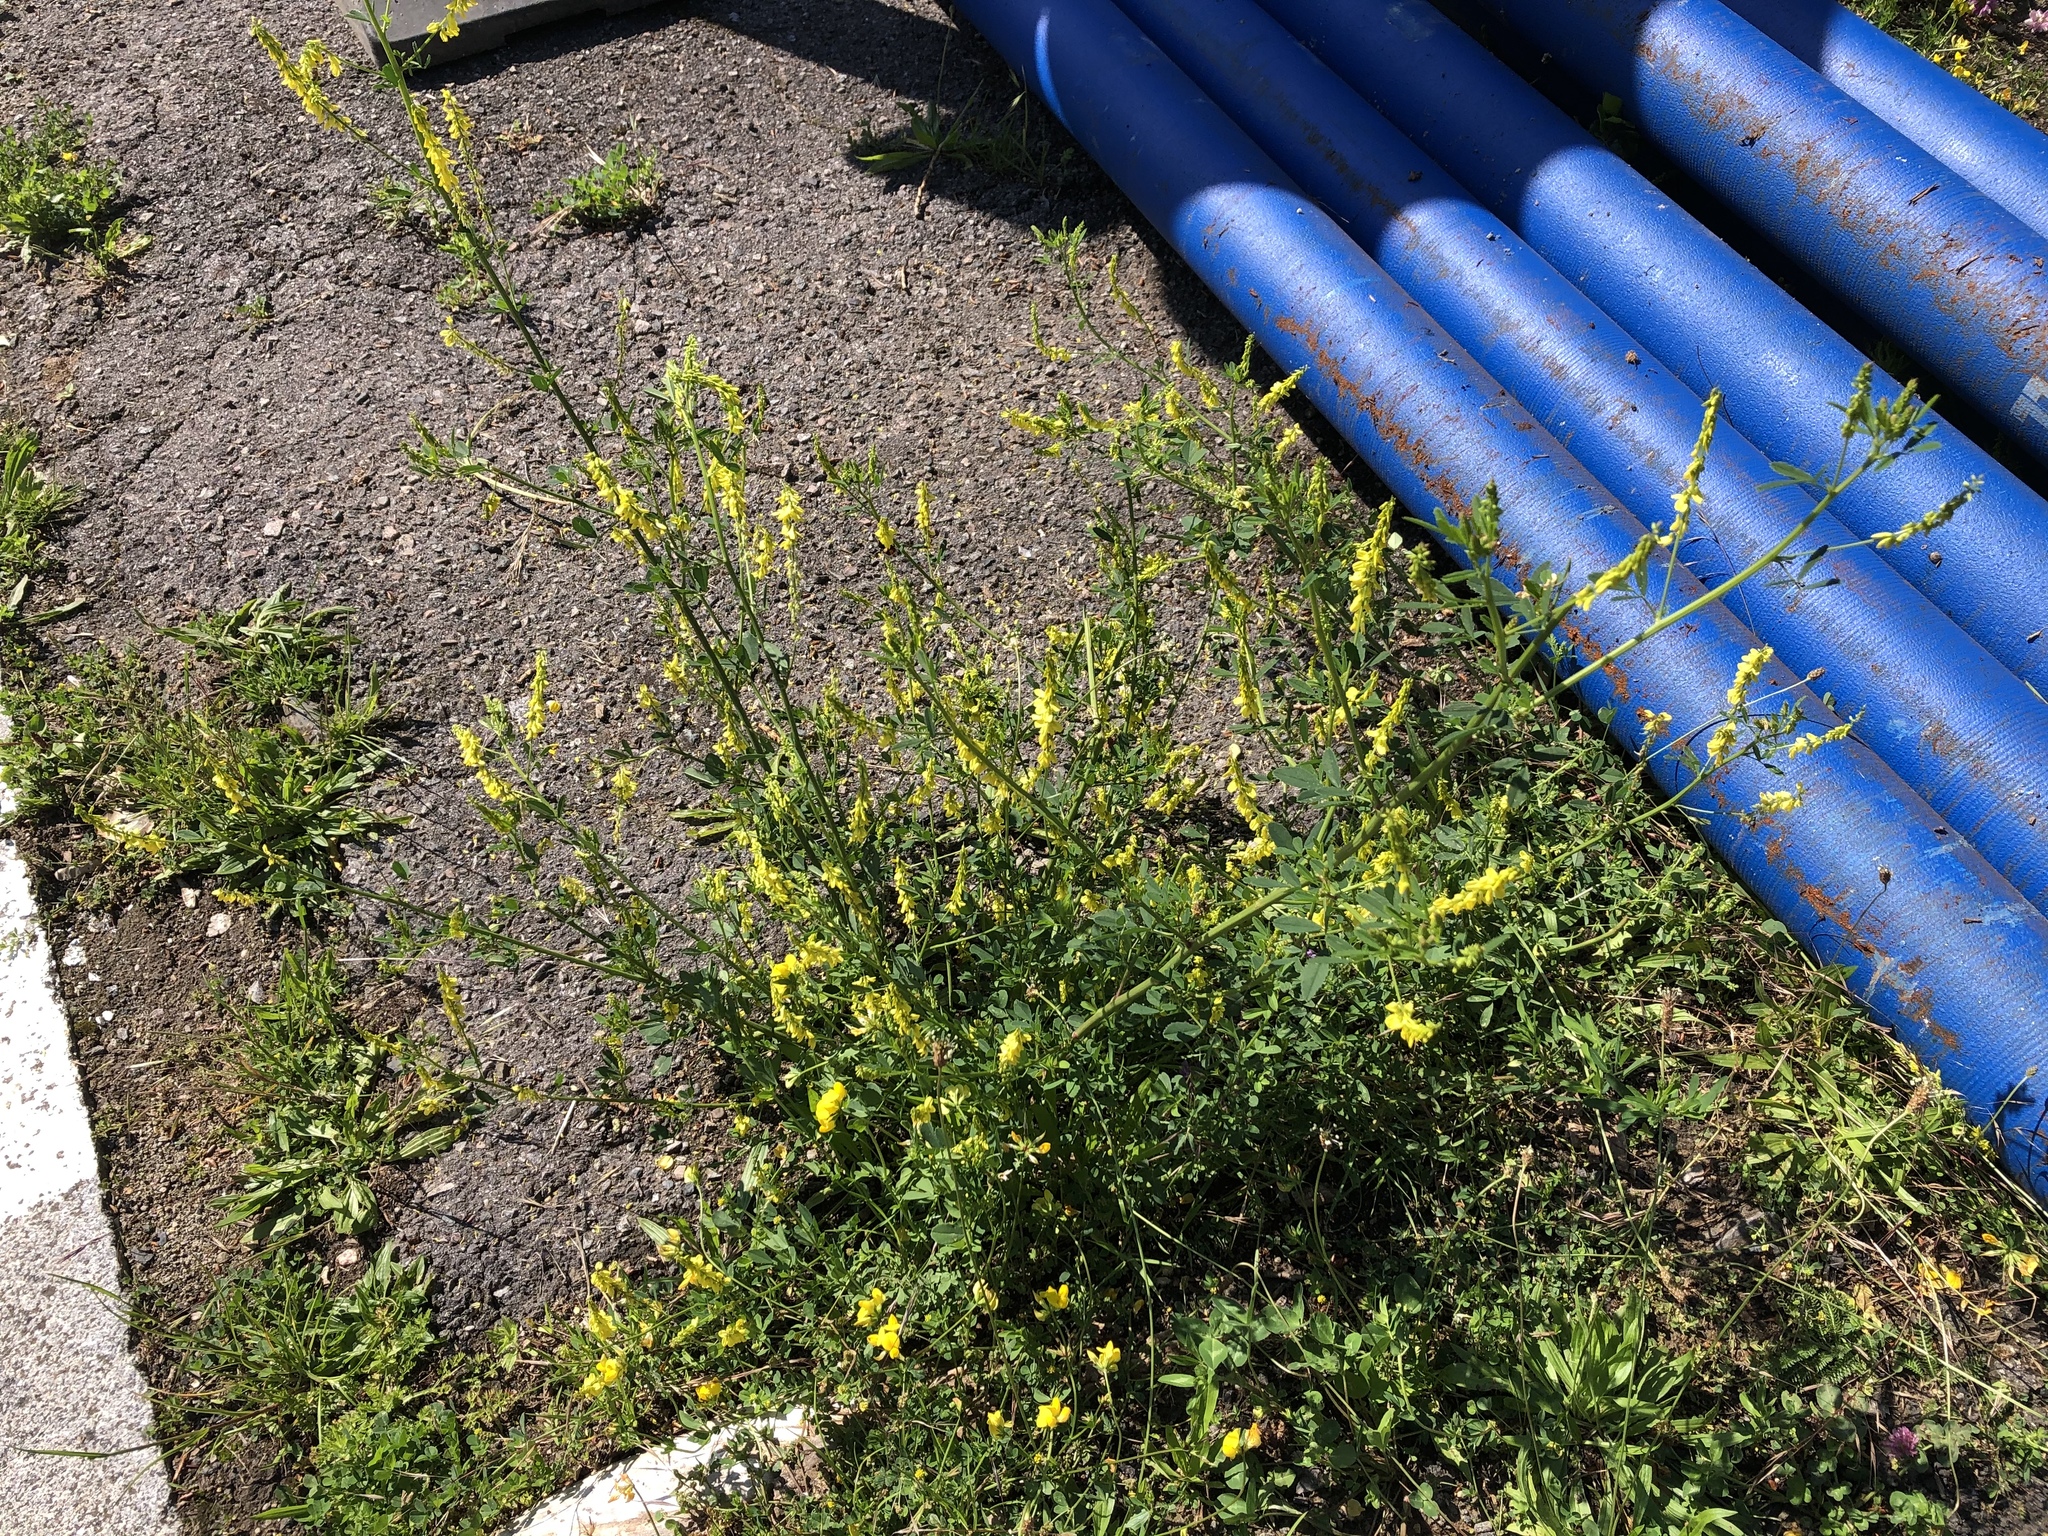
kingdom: Plantae
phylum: Tracheophyta
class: Magnoliopsida
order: Fabales
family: Fabaceae
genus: Melilotus
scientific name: Melilotus officinalis
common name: Sweetclover
